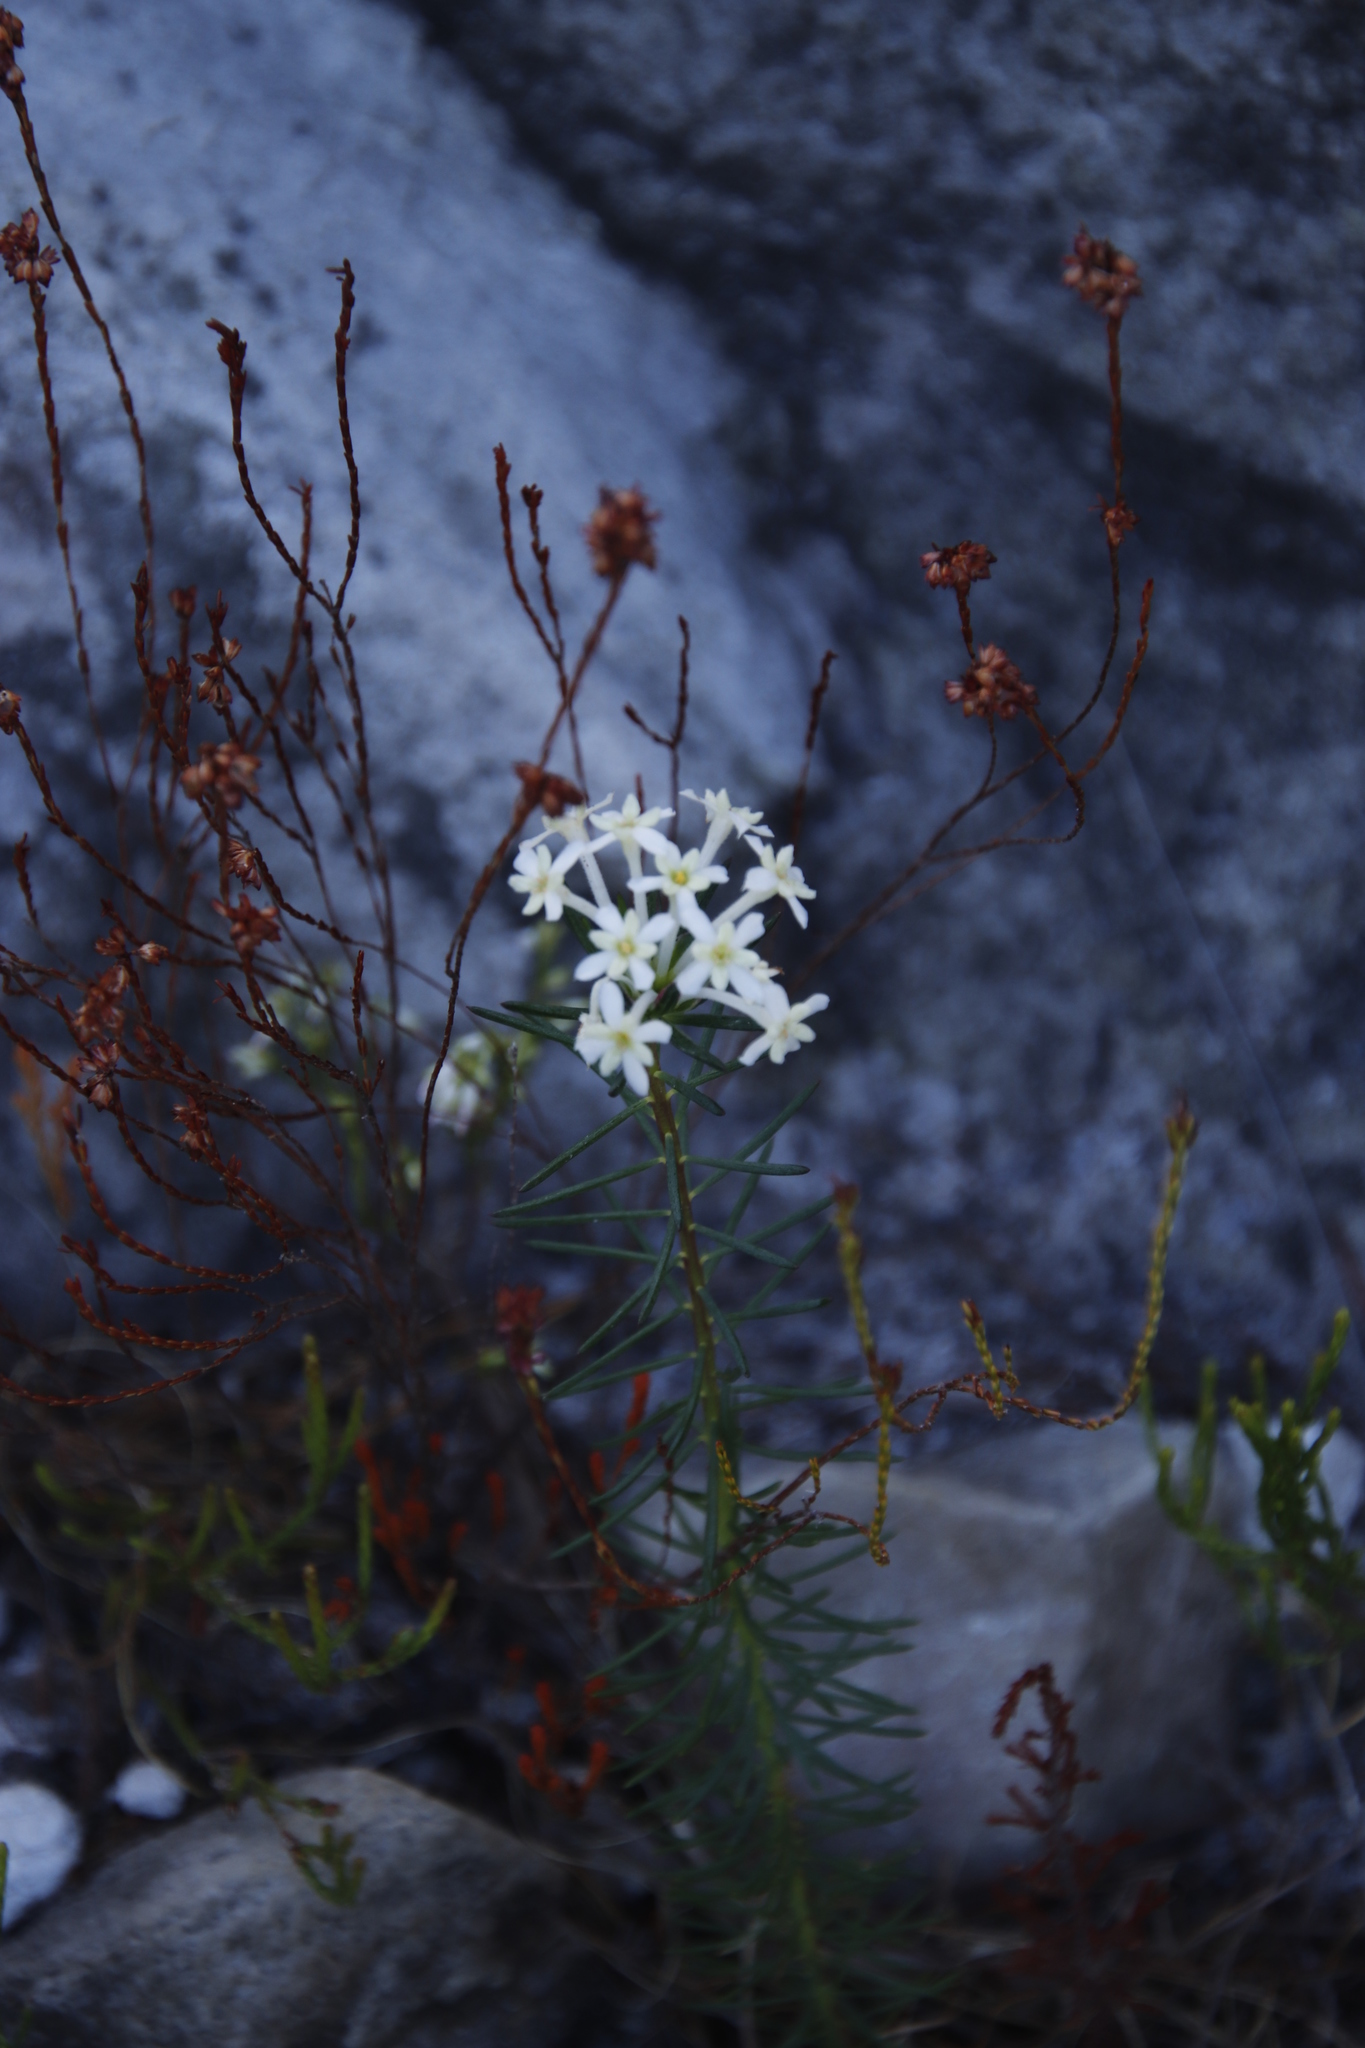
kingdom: Plantae
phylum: Tracheophyta
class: Magnoliopsida
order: Malvales
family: Thymelaeaceae
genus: Gnidia
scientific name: Gnidia pinifolia
